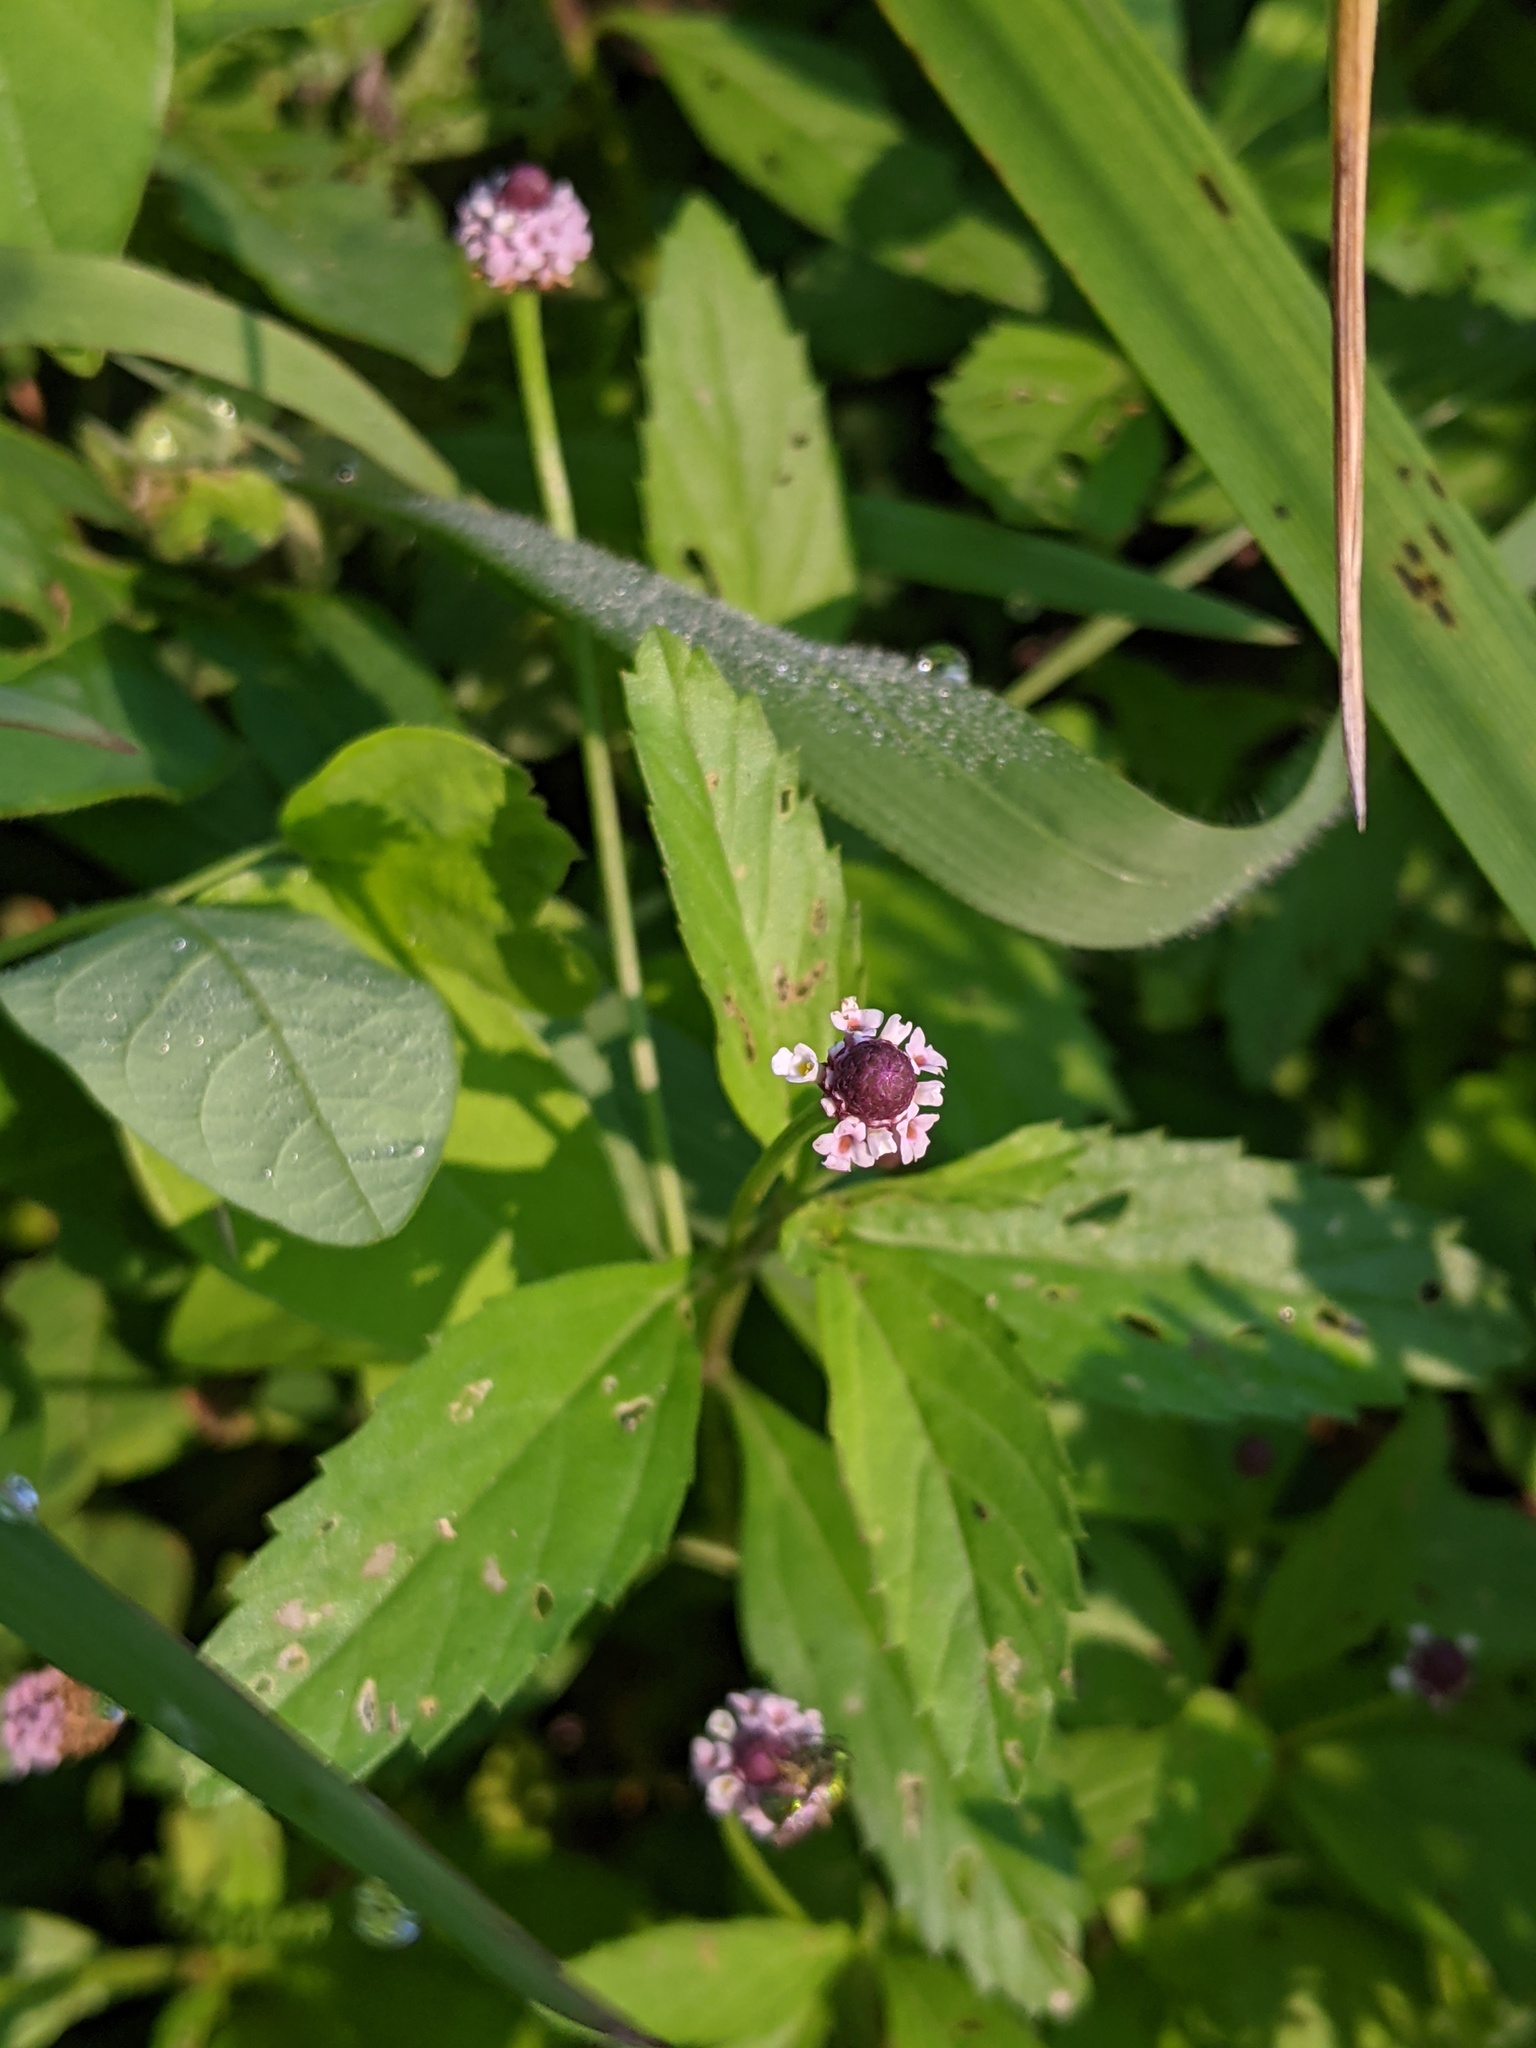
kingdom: Plantae
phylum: Tracheophyta
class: Magnoliopsida
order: Lamiales
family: Verbenaceae
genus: Phyla
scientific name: Phyla lanceolata
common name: Northern fogfruit
